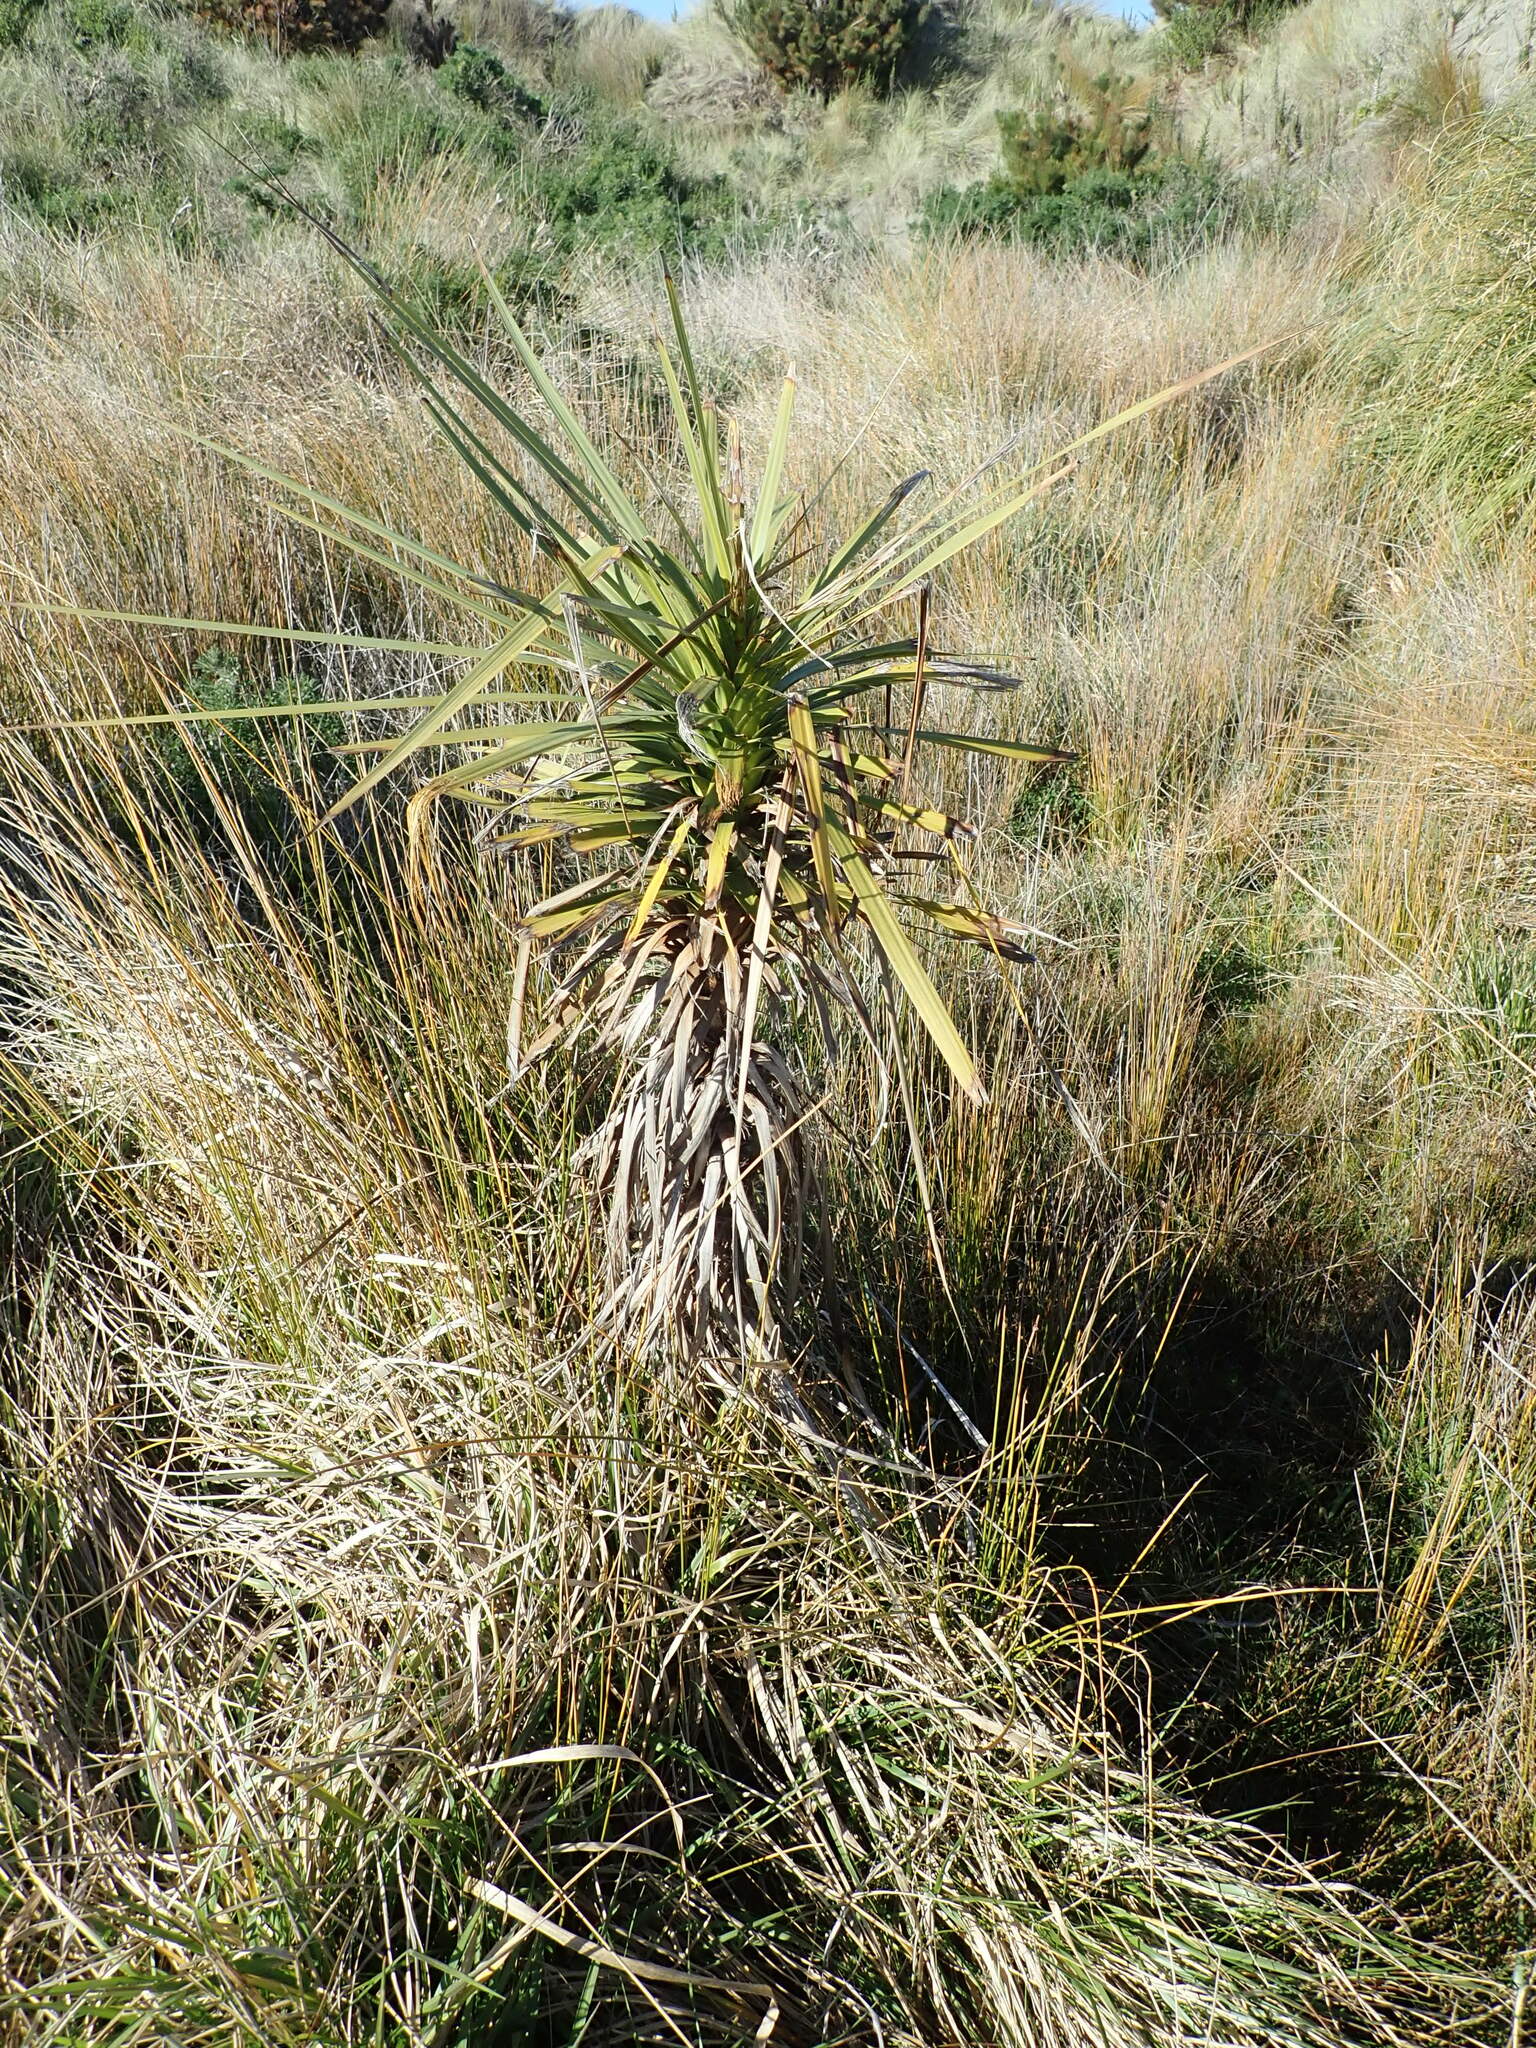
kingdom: Plantae
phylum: Tracheophyta
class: Liliopsida
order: Asparagales
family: Asparagaceae
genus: Cordyline
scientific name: Cordyline australis
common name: Cabbage-palm
